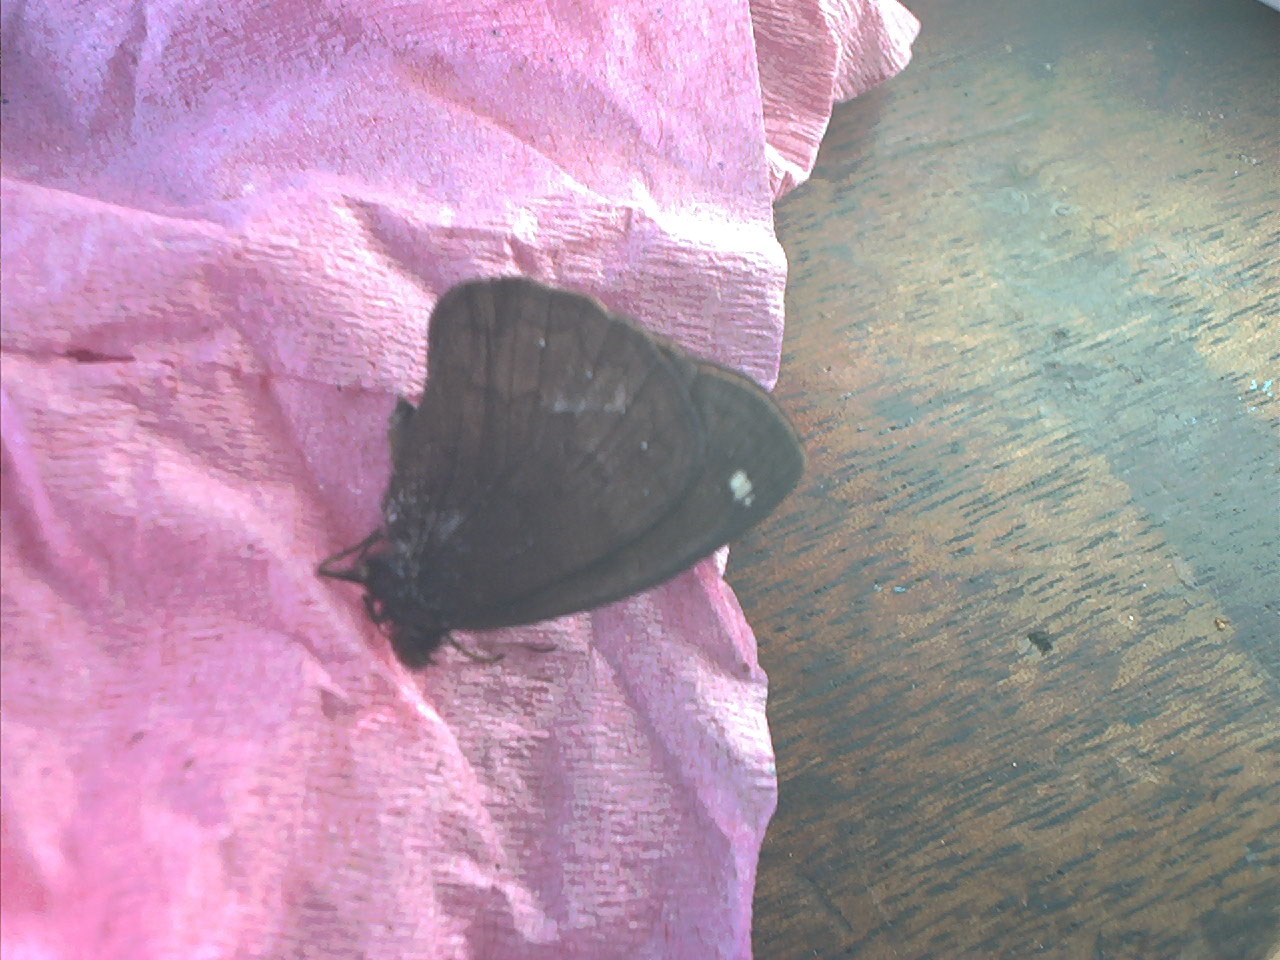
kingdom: Animalia
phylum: Arthropoda
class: Insecta
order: Lepidoptera
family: Nymphalidae
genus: Forsterinaria
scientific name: Forsterinaria rustica
